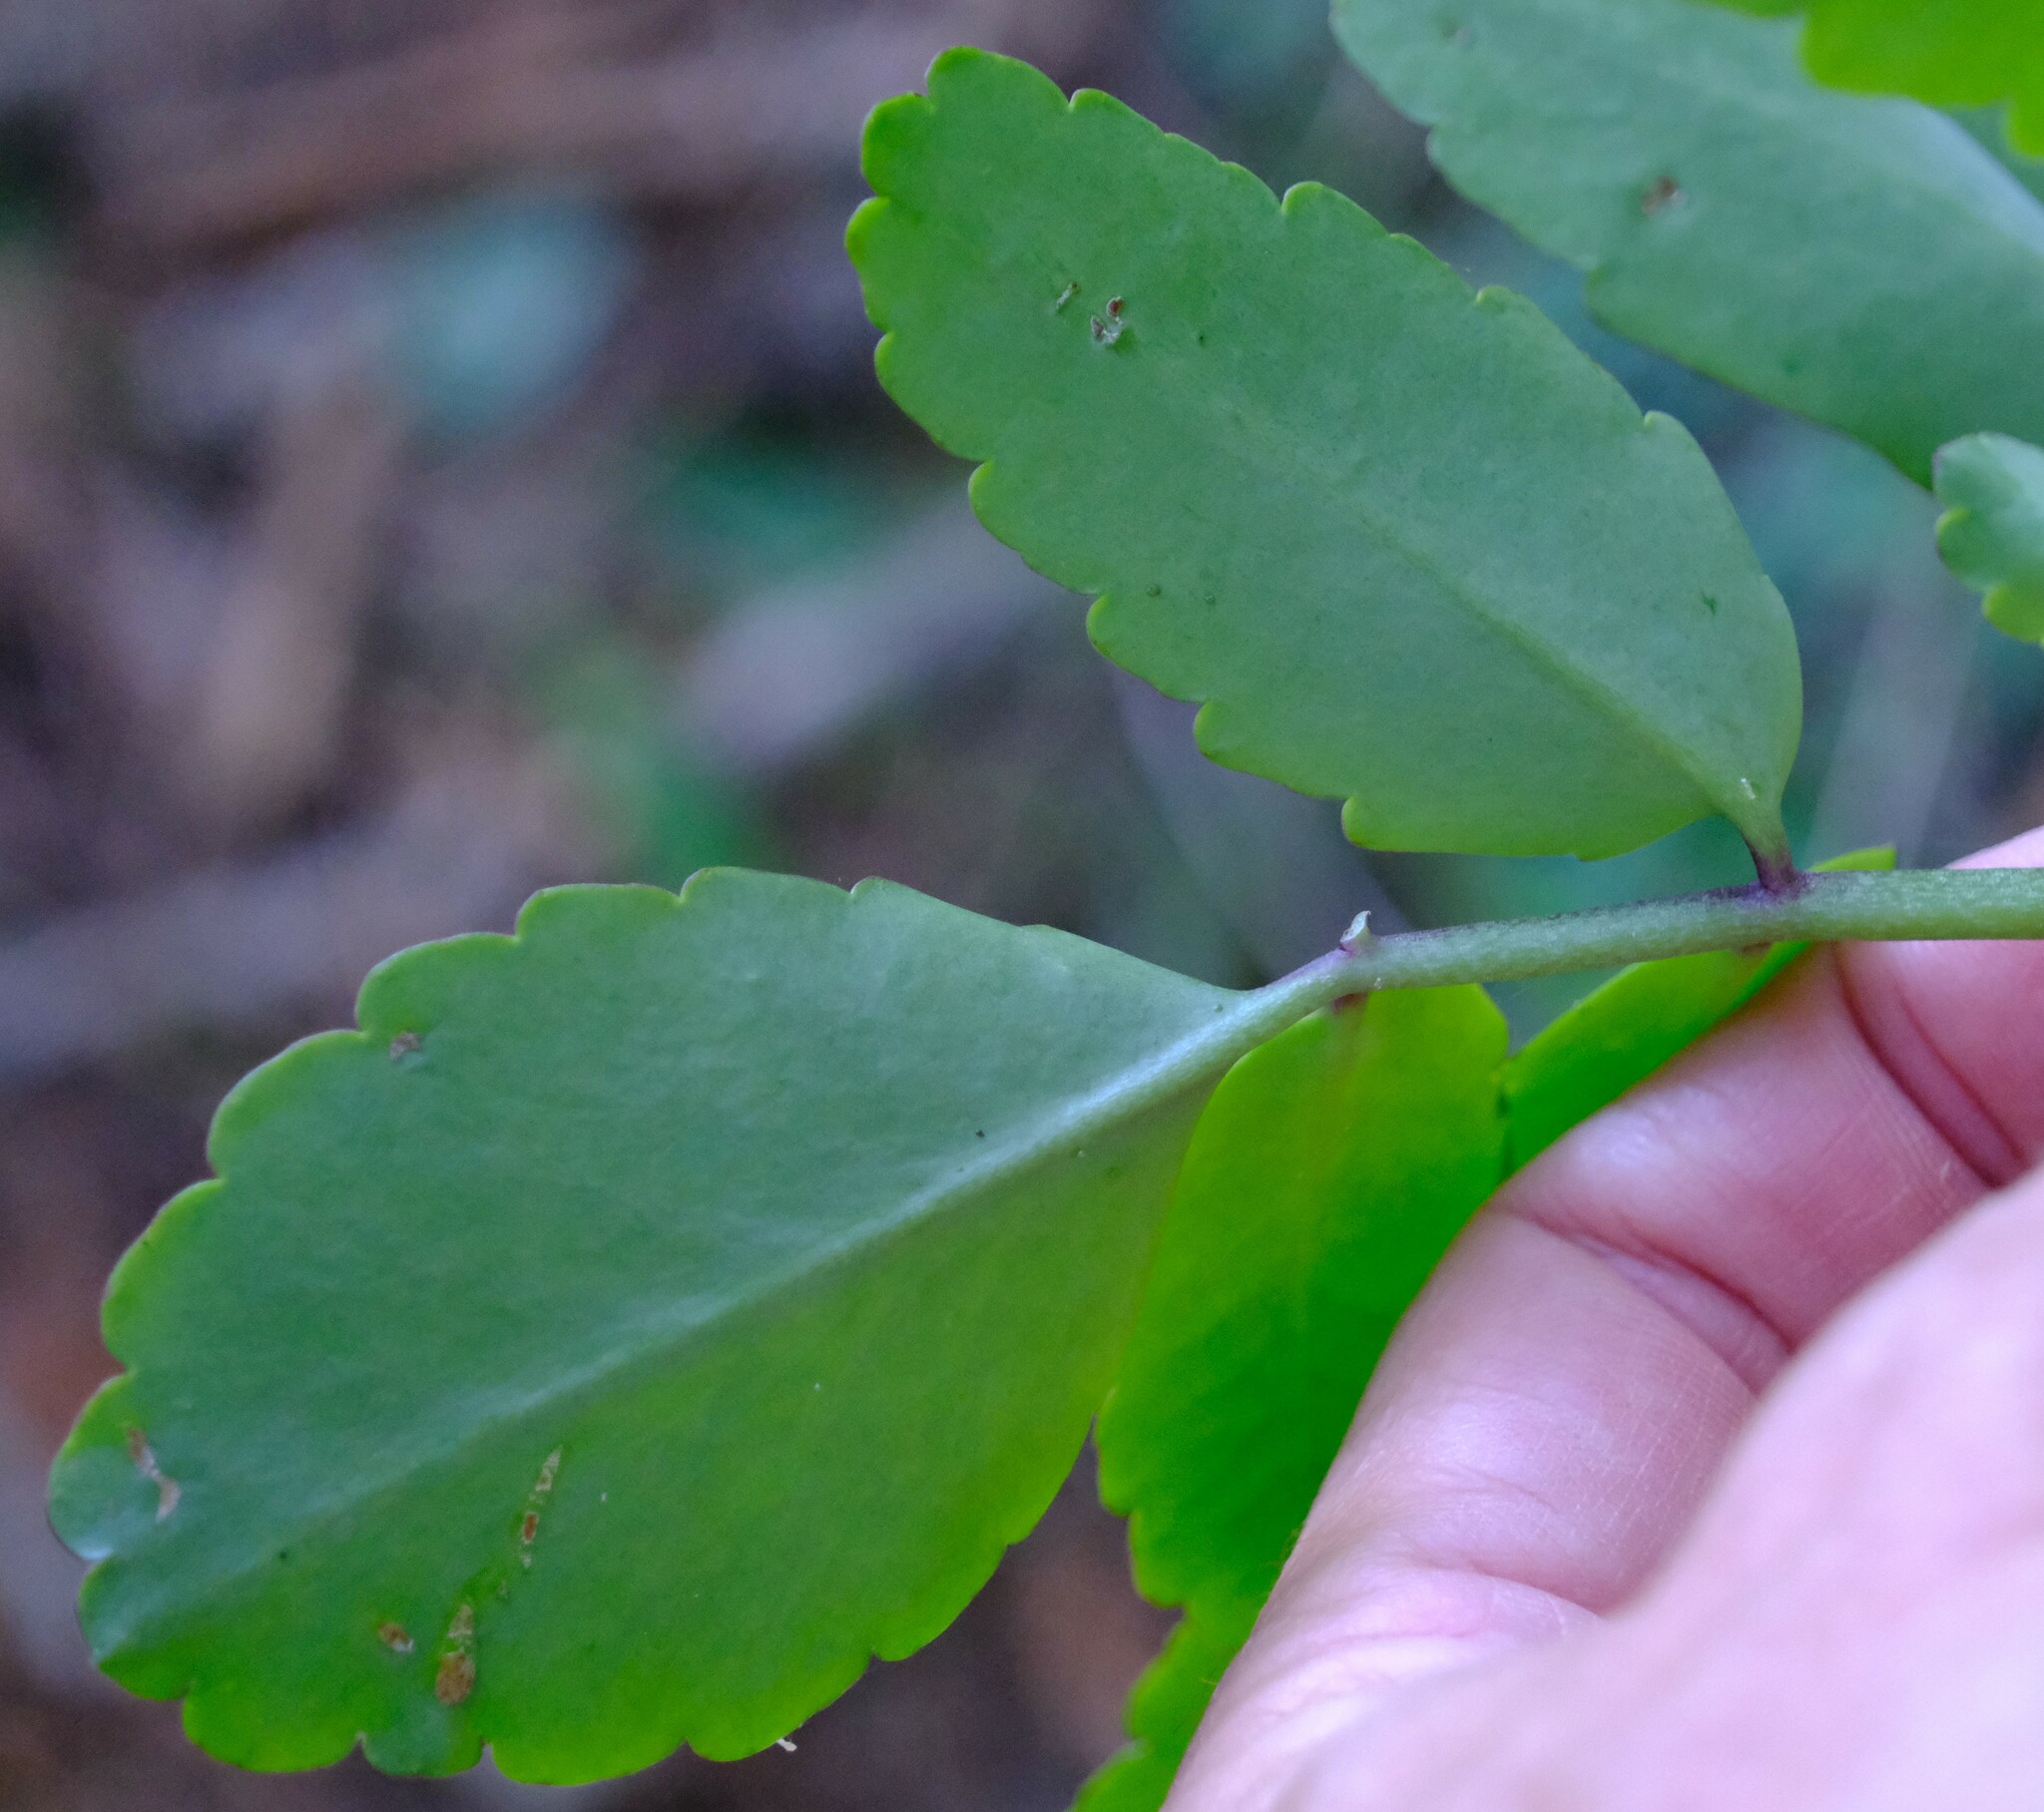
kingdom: Plantae
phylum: Tracheophyta
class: Magnoliopsida
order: Saxifragales
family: Crassulaceae
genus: Kalanchoe
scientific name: Kalanchoe pinnata
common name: Cathedral bells
